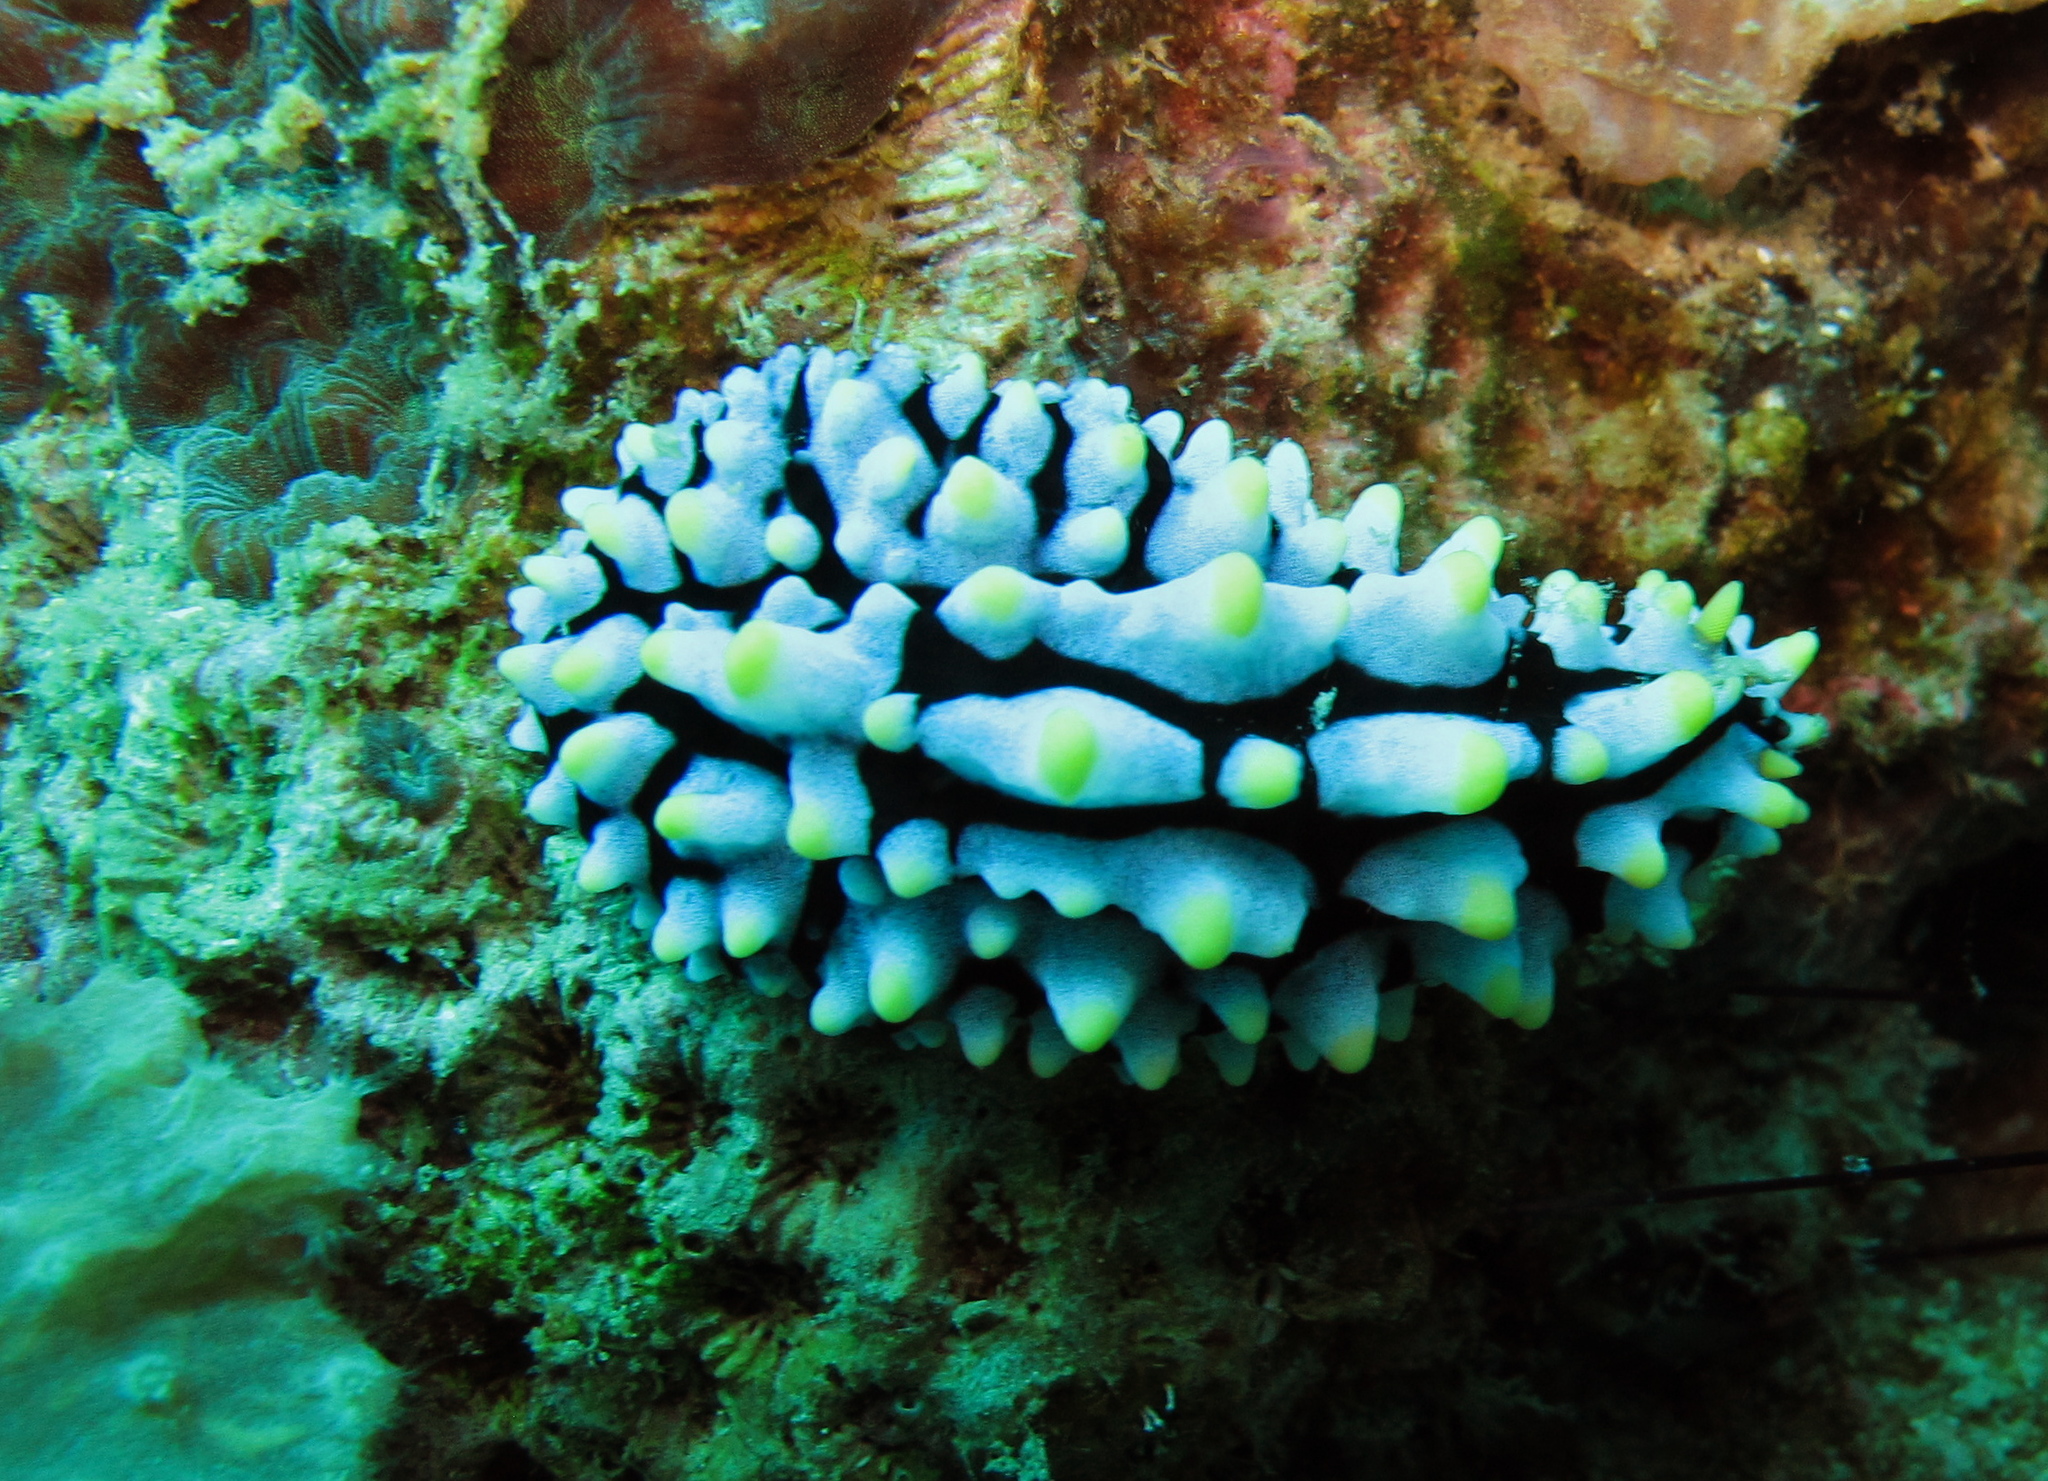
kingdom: Animalia
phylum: Mollusca
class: Gastropoda
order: Nudibranchia
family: Phyllidiidae
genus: Phyllidia
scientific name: Phyllidia varicosa
